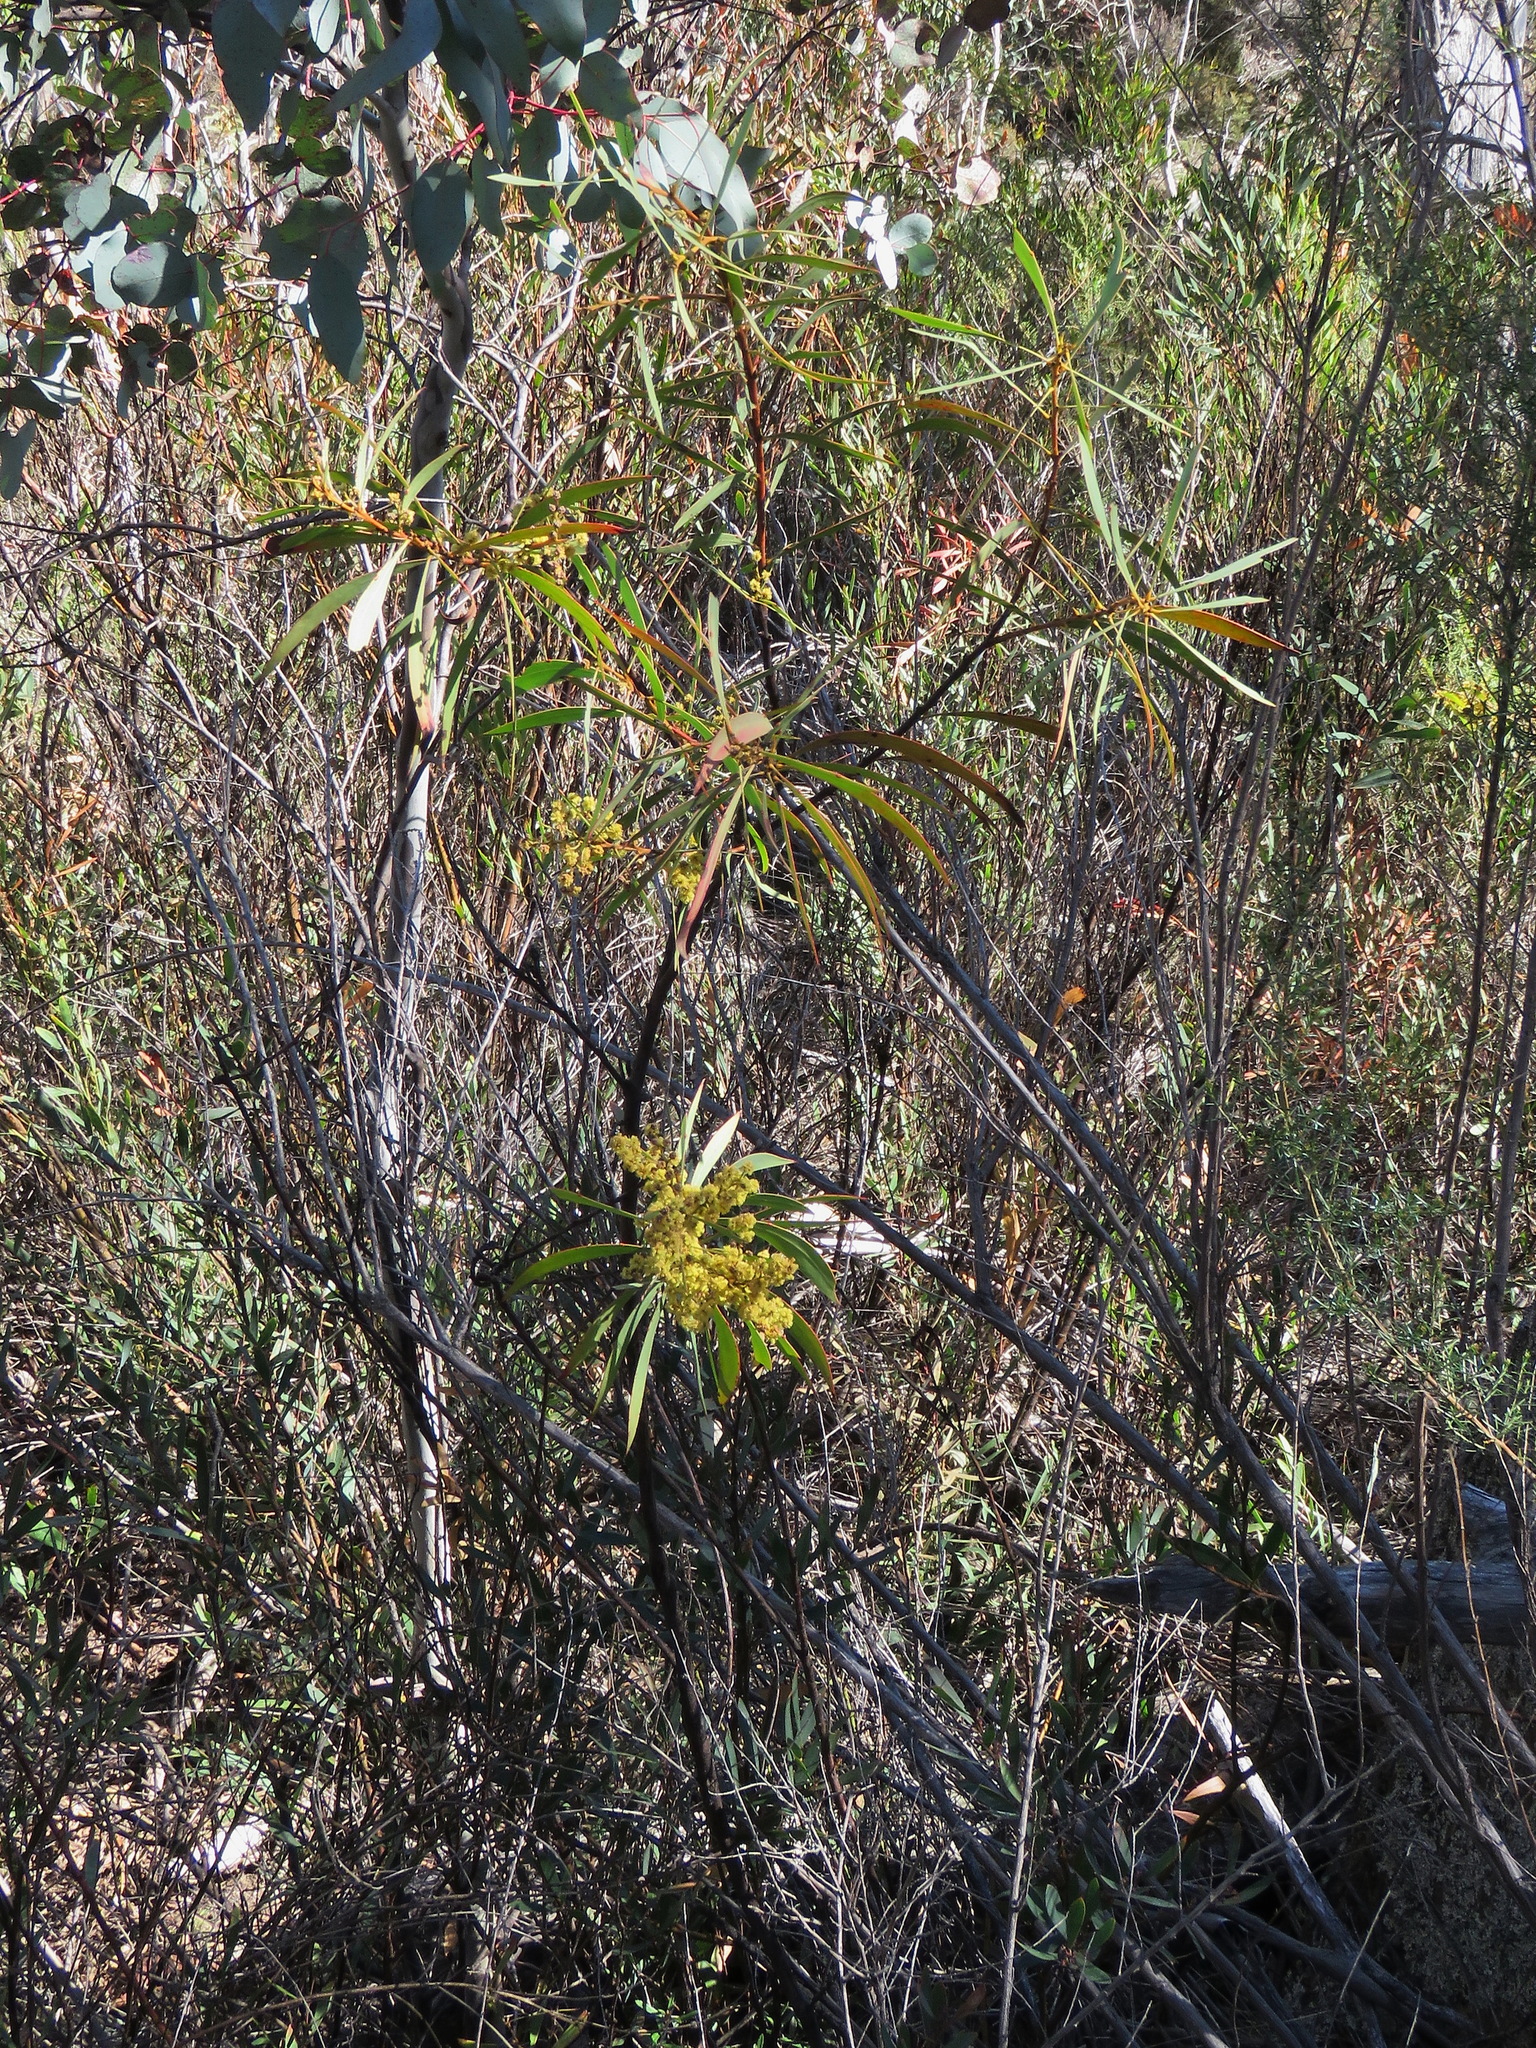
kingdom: Plantae
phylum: Tracheophyta
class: Magnoliopsida
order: Fabales
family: Fabaceae
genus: Acacia
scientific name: Acacia rubida
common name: Red leaf wattle
